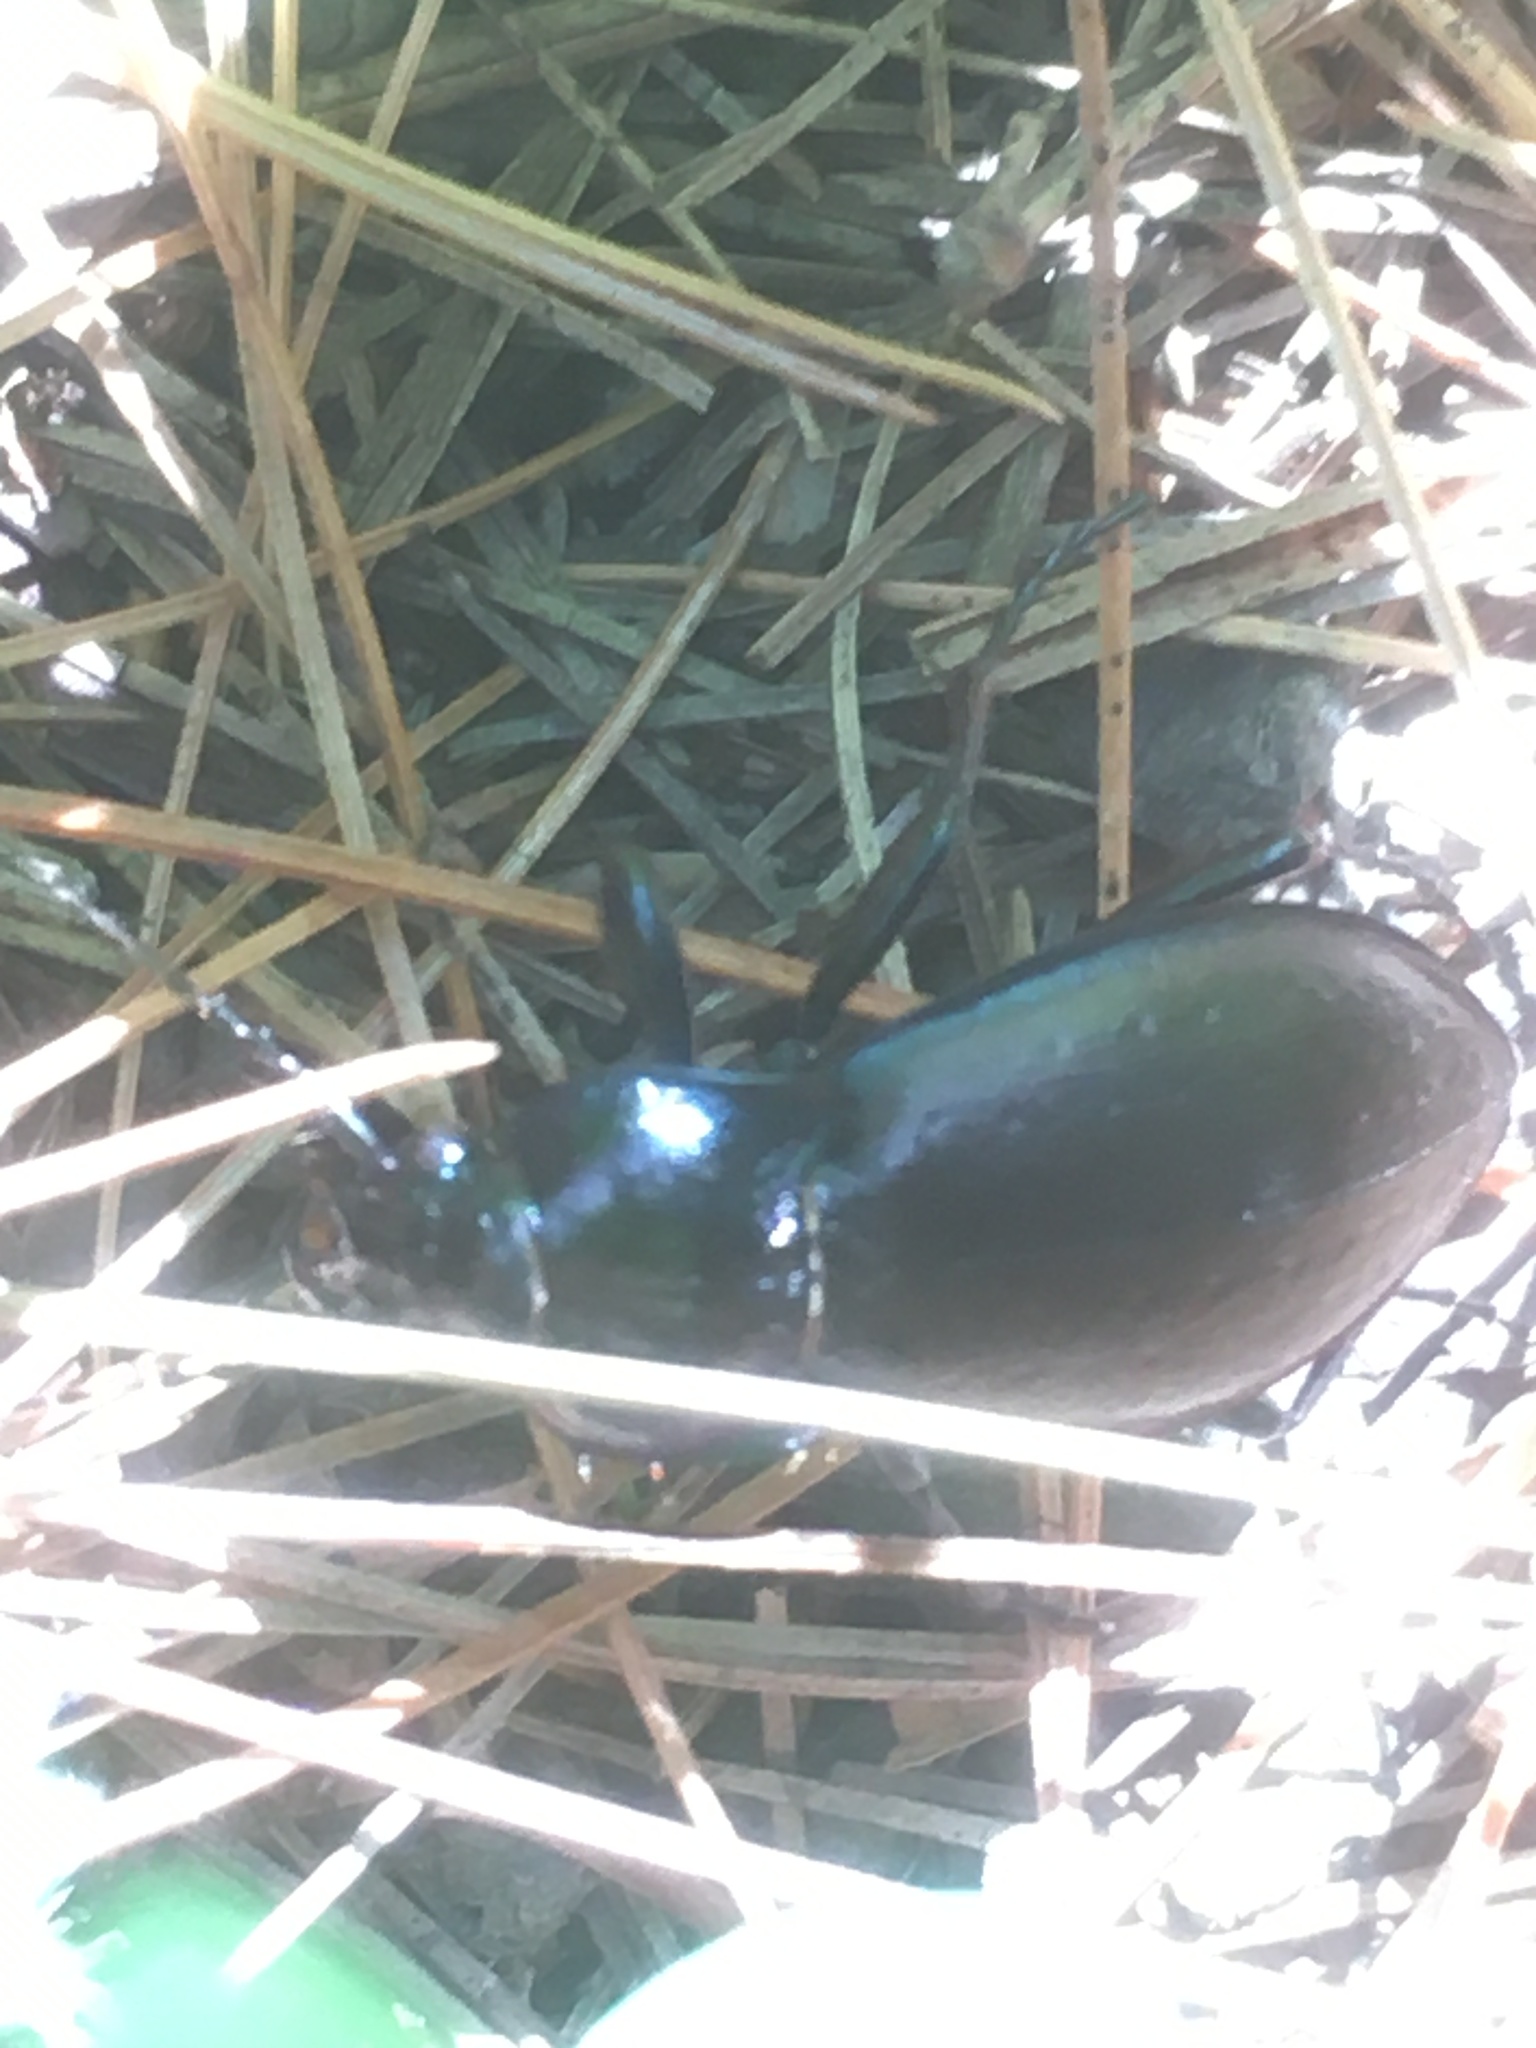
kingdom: Animalia
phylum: Arthropoda
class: Insecta
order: Coleoptera
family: Carabidae
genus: Carabus
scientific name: Carabus nemoralis
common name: European ground beetle
